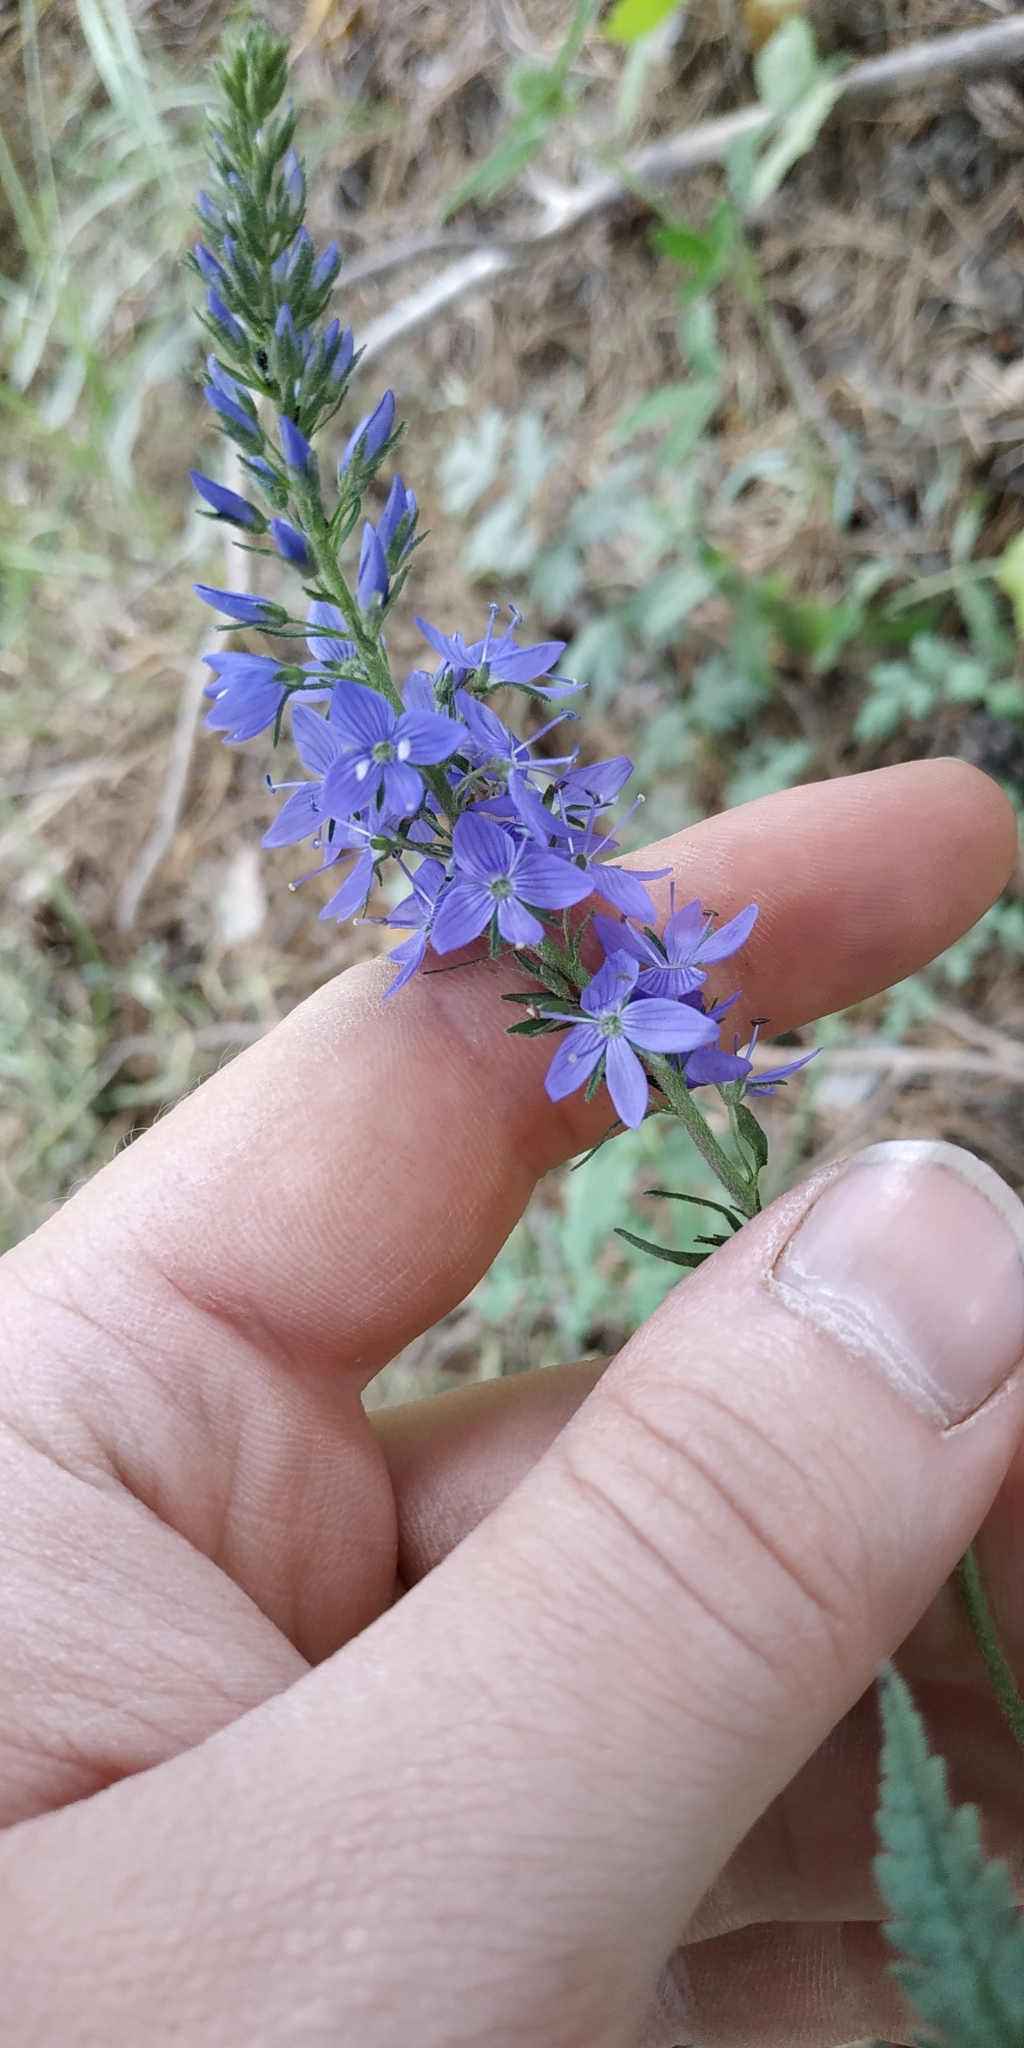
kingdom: Plantae
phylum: Tracheophyta
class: Magnoliopsida
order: Lamiales
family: Plantaginaceae
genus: Veronica
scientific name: Veronica teucrium
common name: Large speedwell
